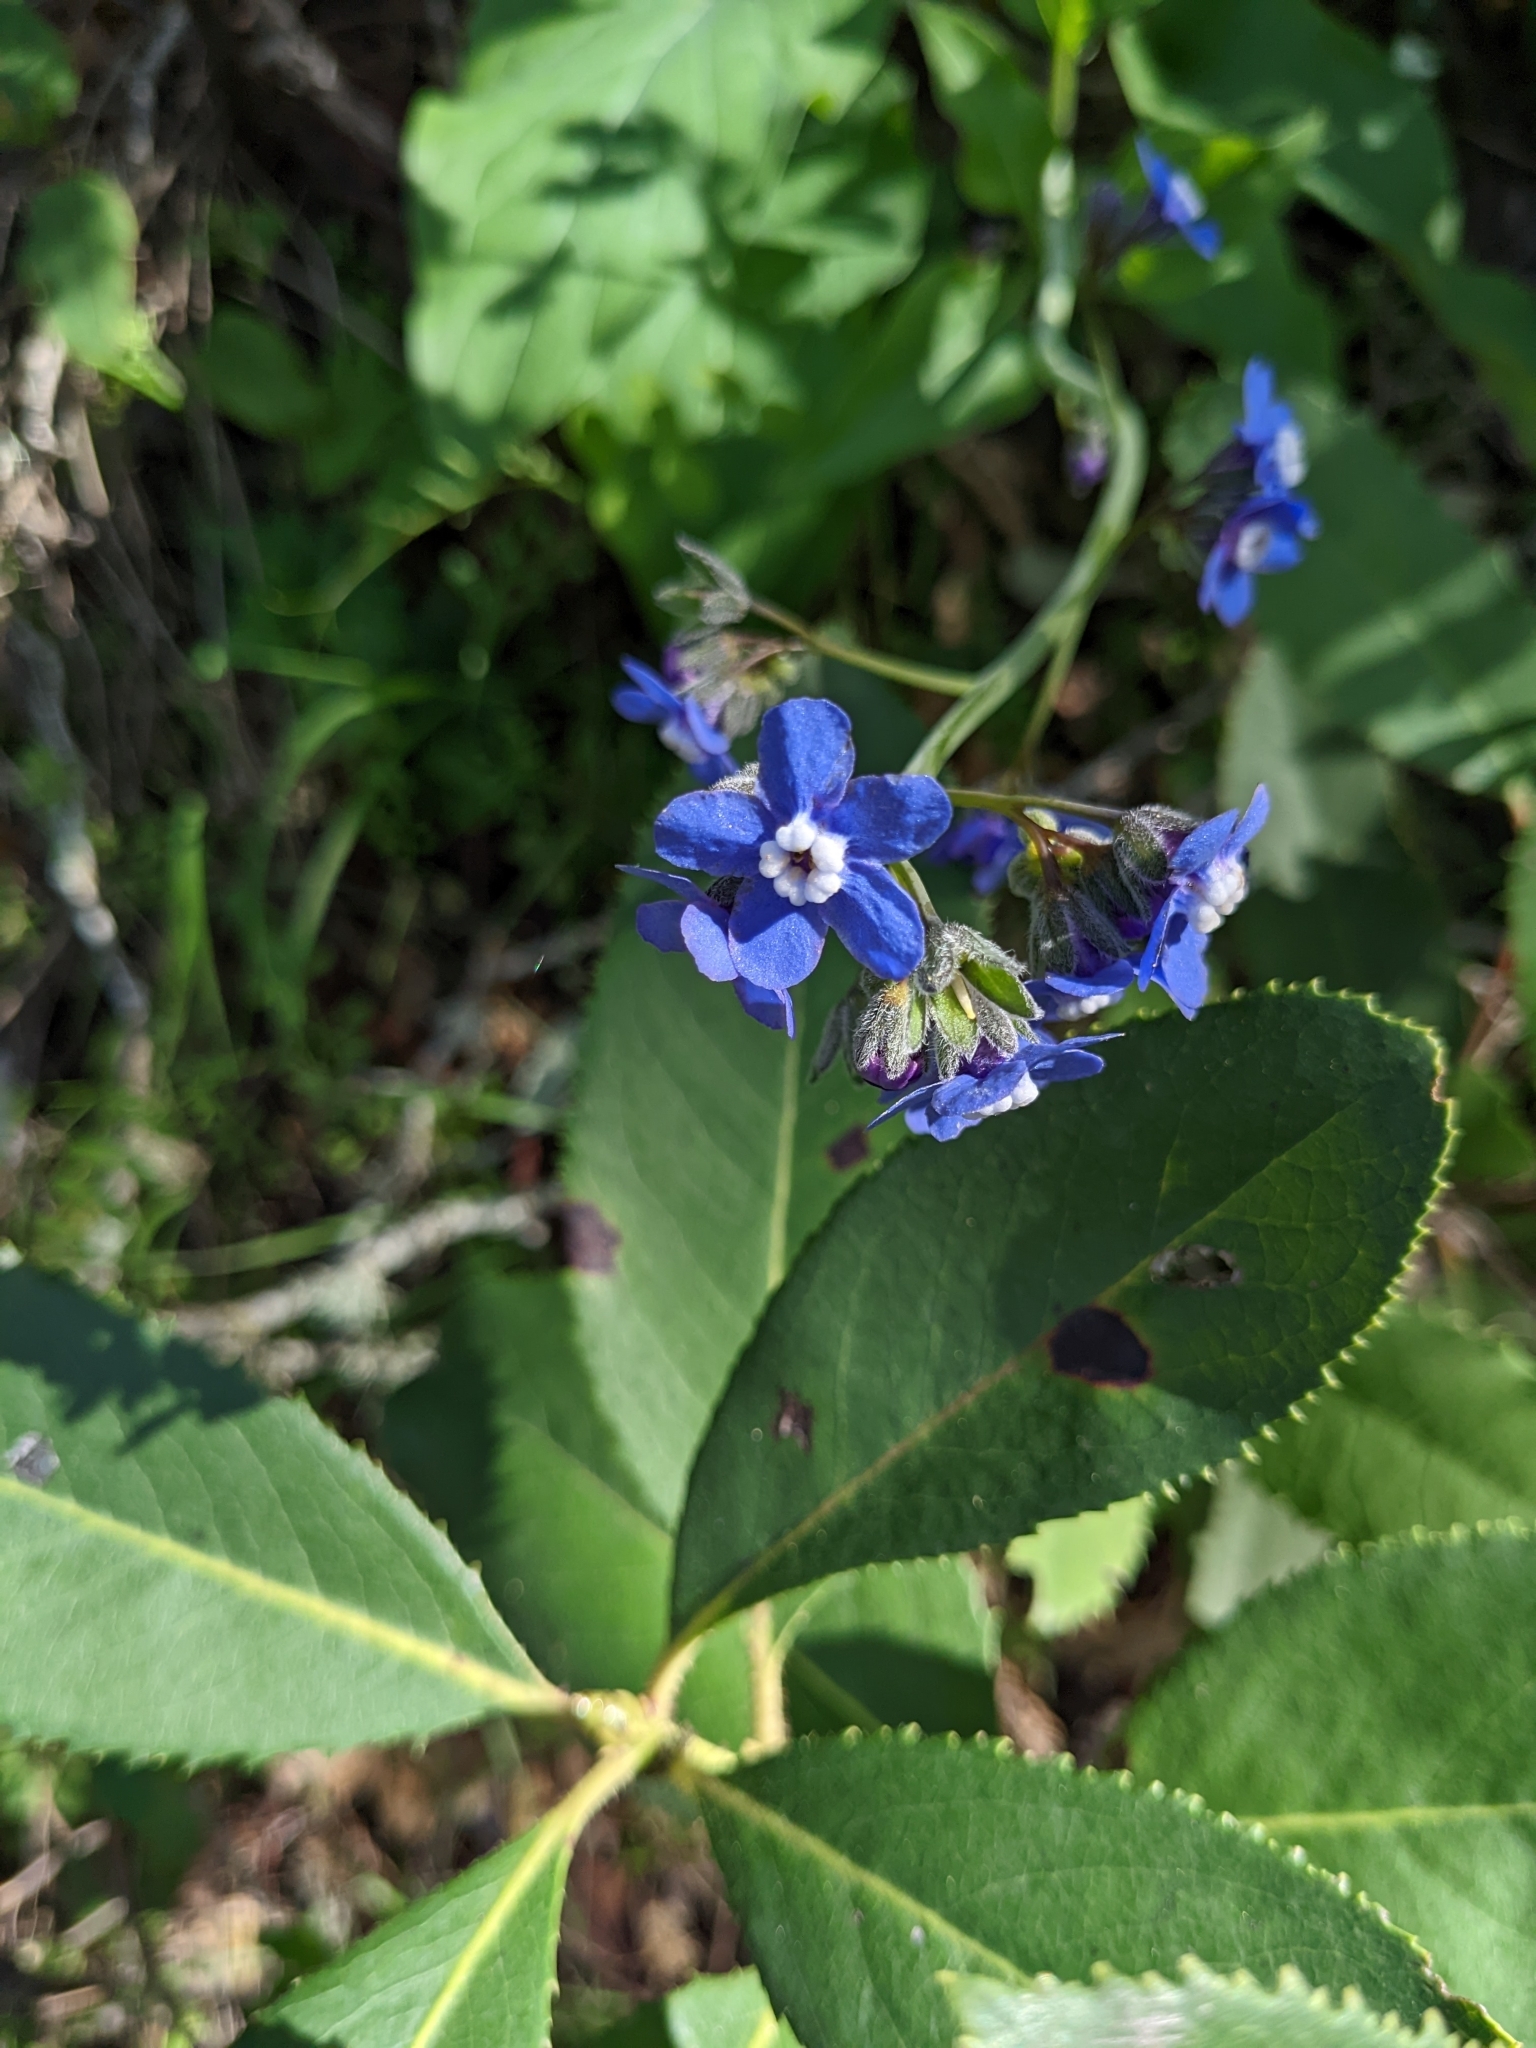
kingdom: Plantae
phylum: Tracheophyta
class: Magnoliopsida
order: Boraginales
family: Boraginaceae
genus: Adelinia
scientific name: Adelinia grande
